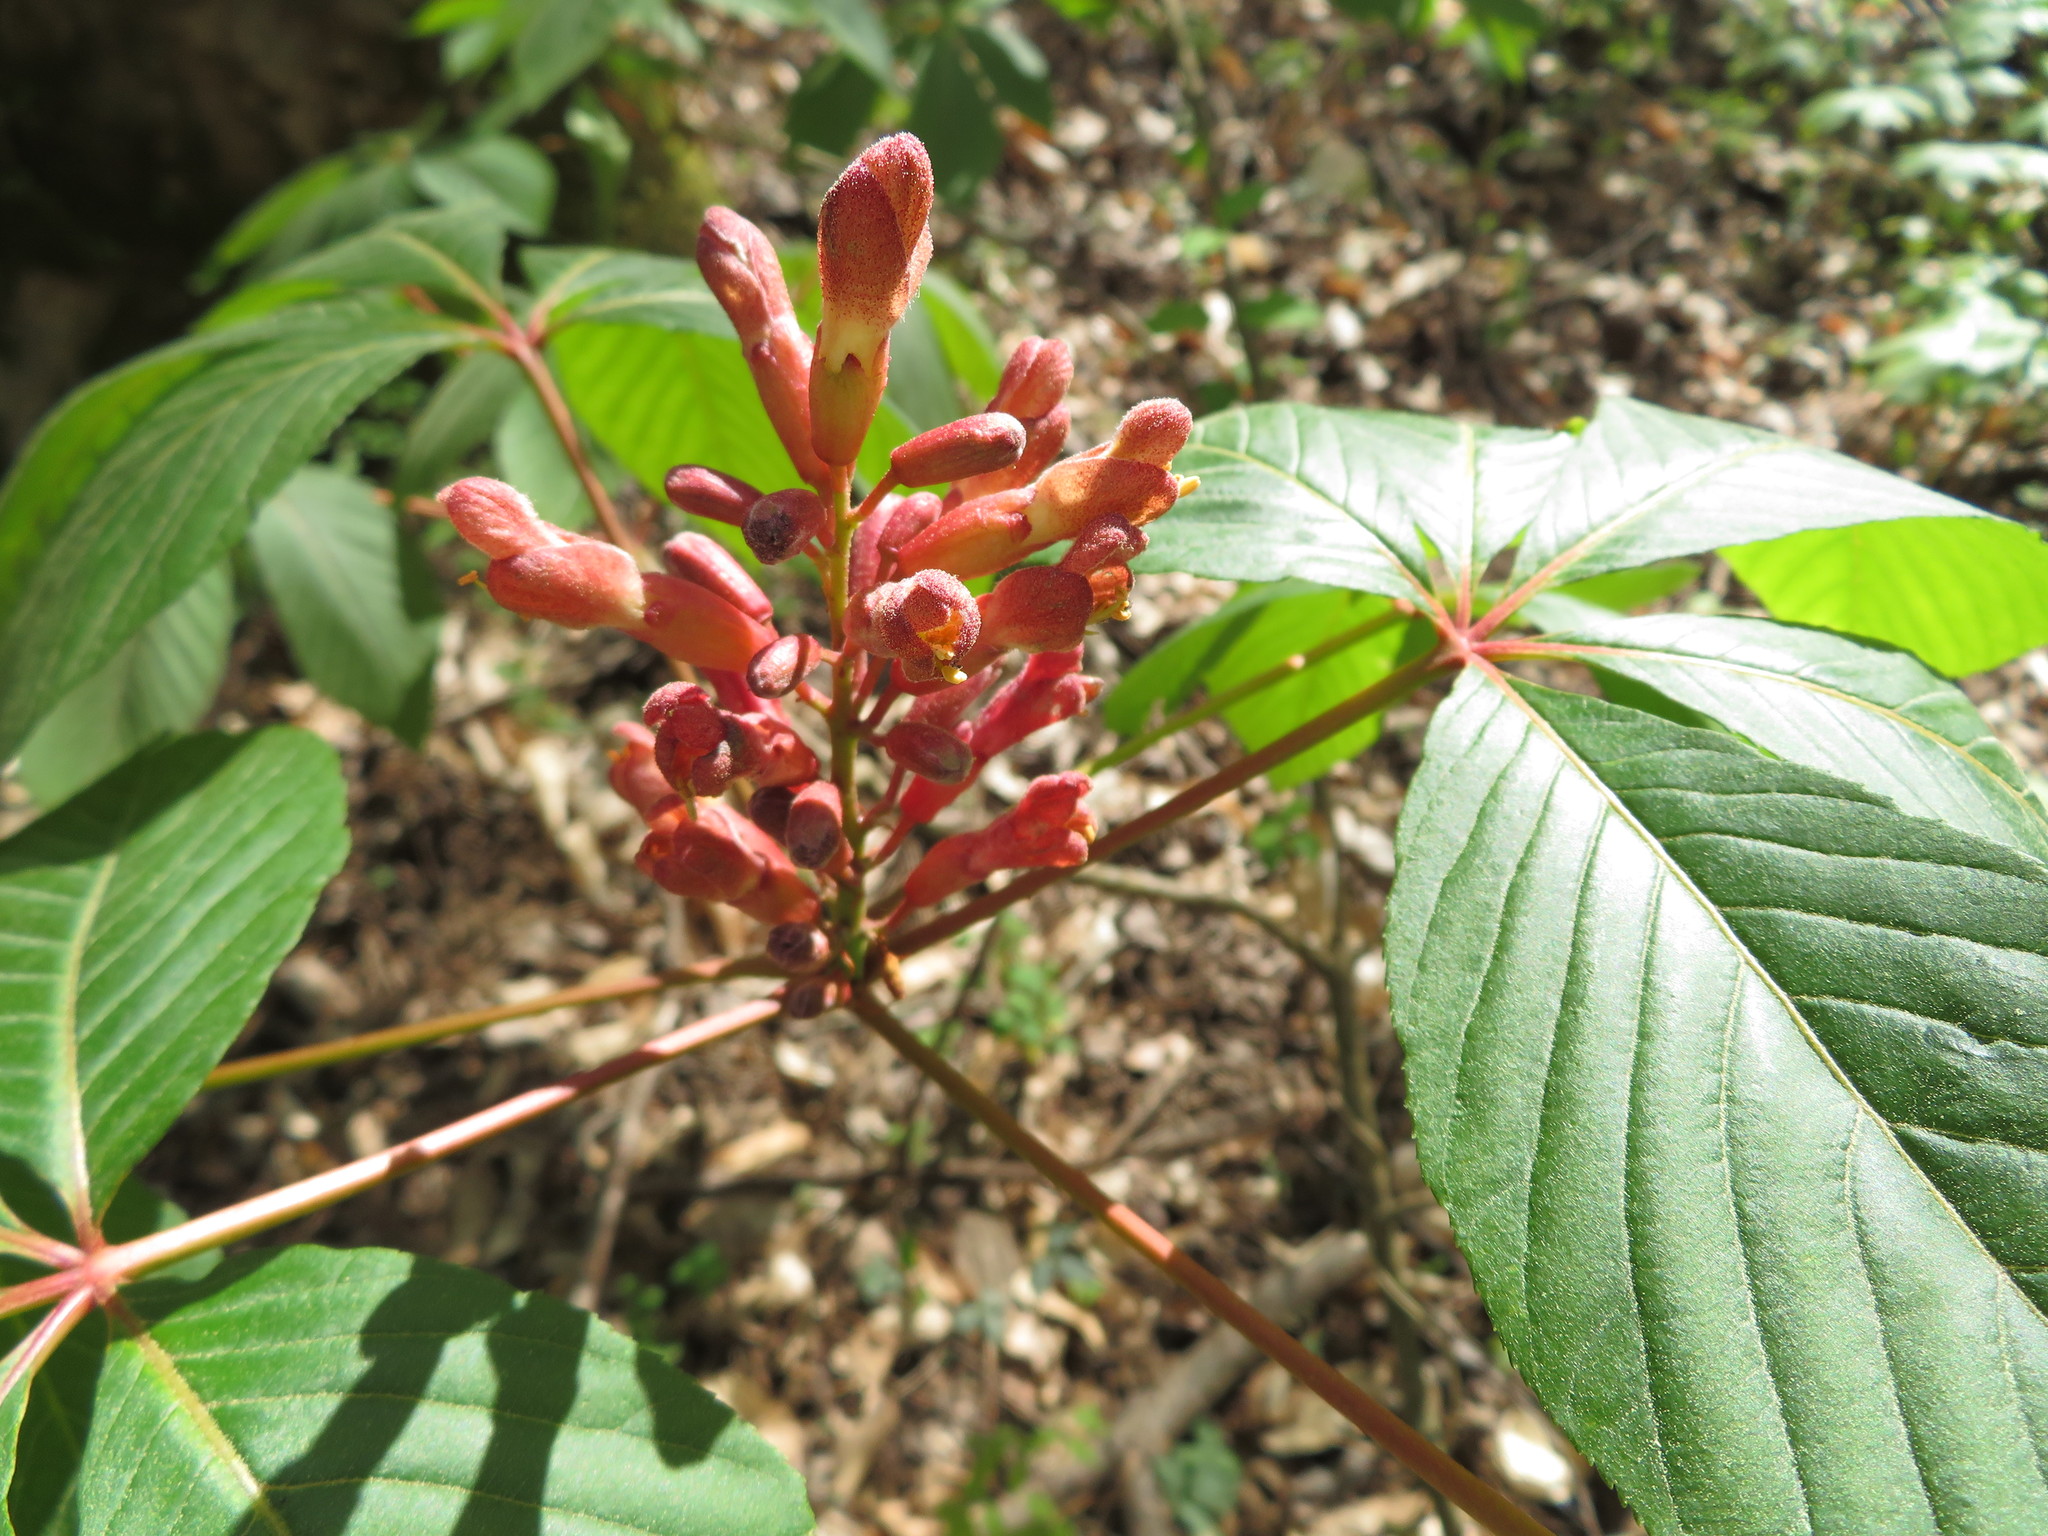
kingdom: Plantae
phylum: Tracheophyta
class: Magnoliopsida
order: Sapindales
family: Sapindaceae
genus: Aesculus
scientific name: Aesculus pavia
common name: Red buckeye
